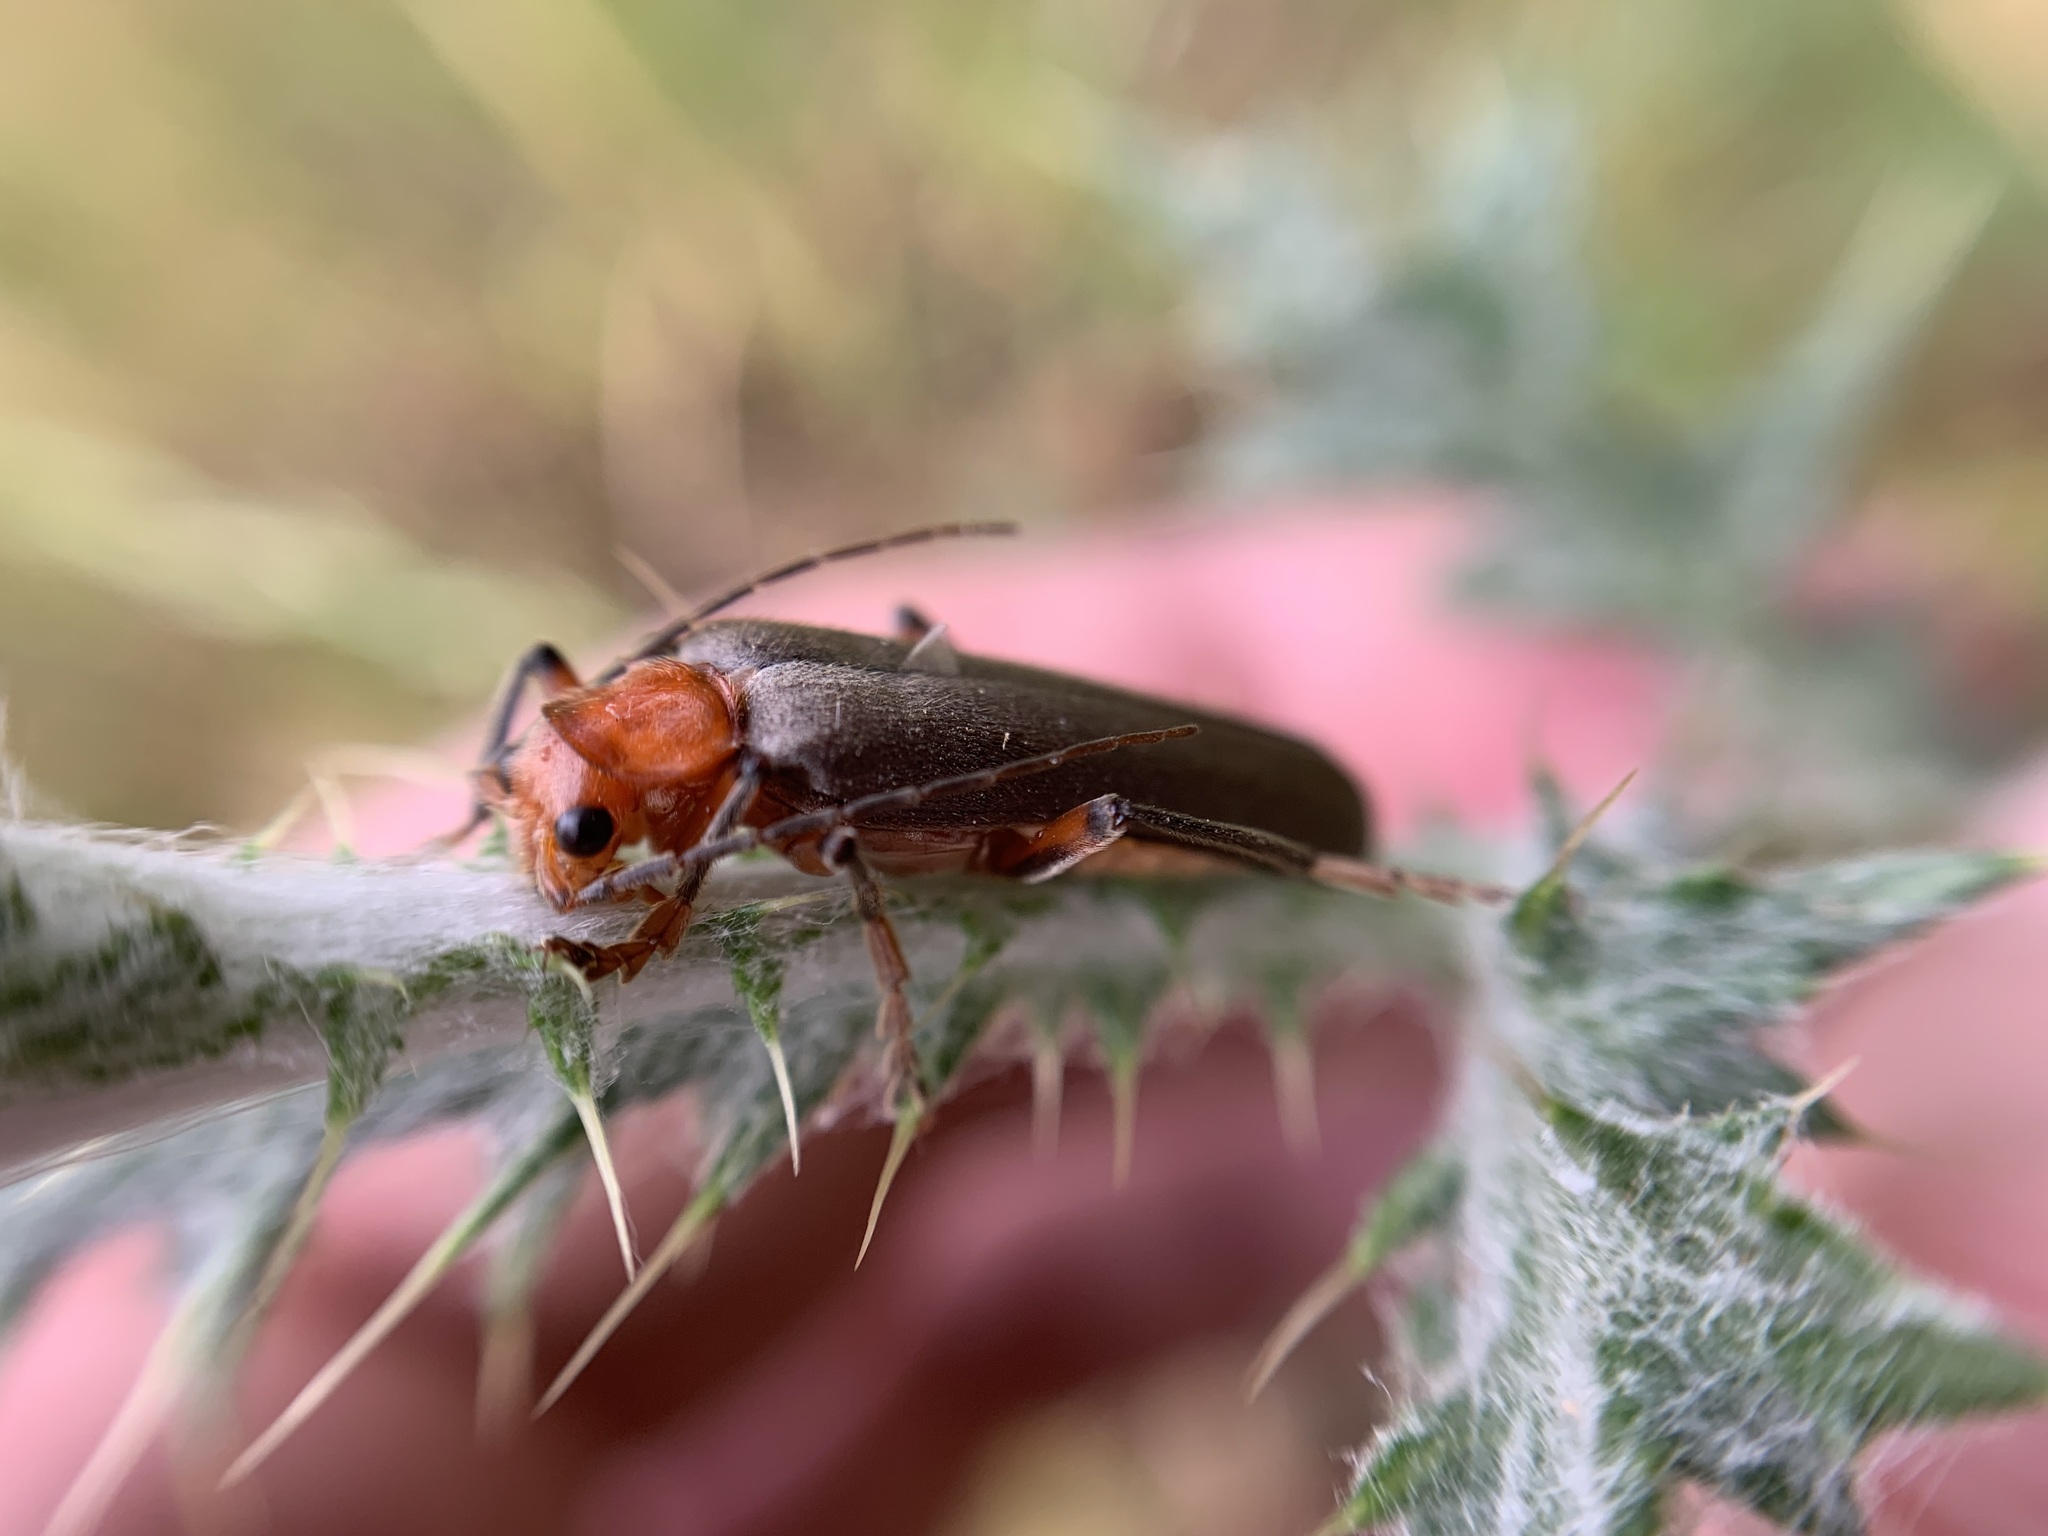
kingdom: Animalia
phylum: Arthropoda
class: Insecta
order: Coleoptera
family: Cantharidae
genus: Pacificanthia
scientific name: Pacificanthia consors
